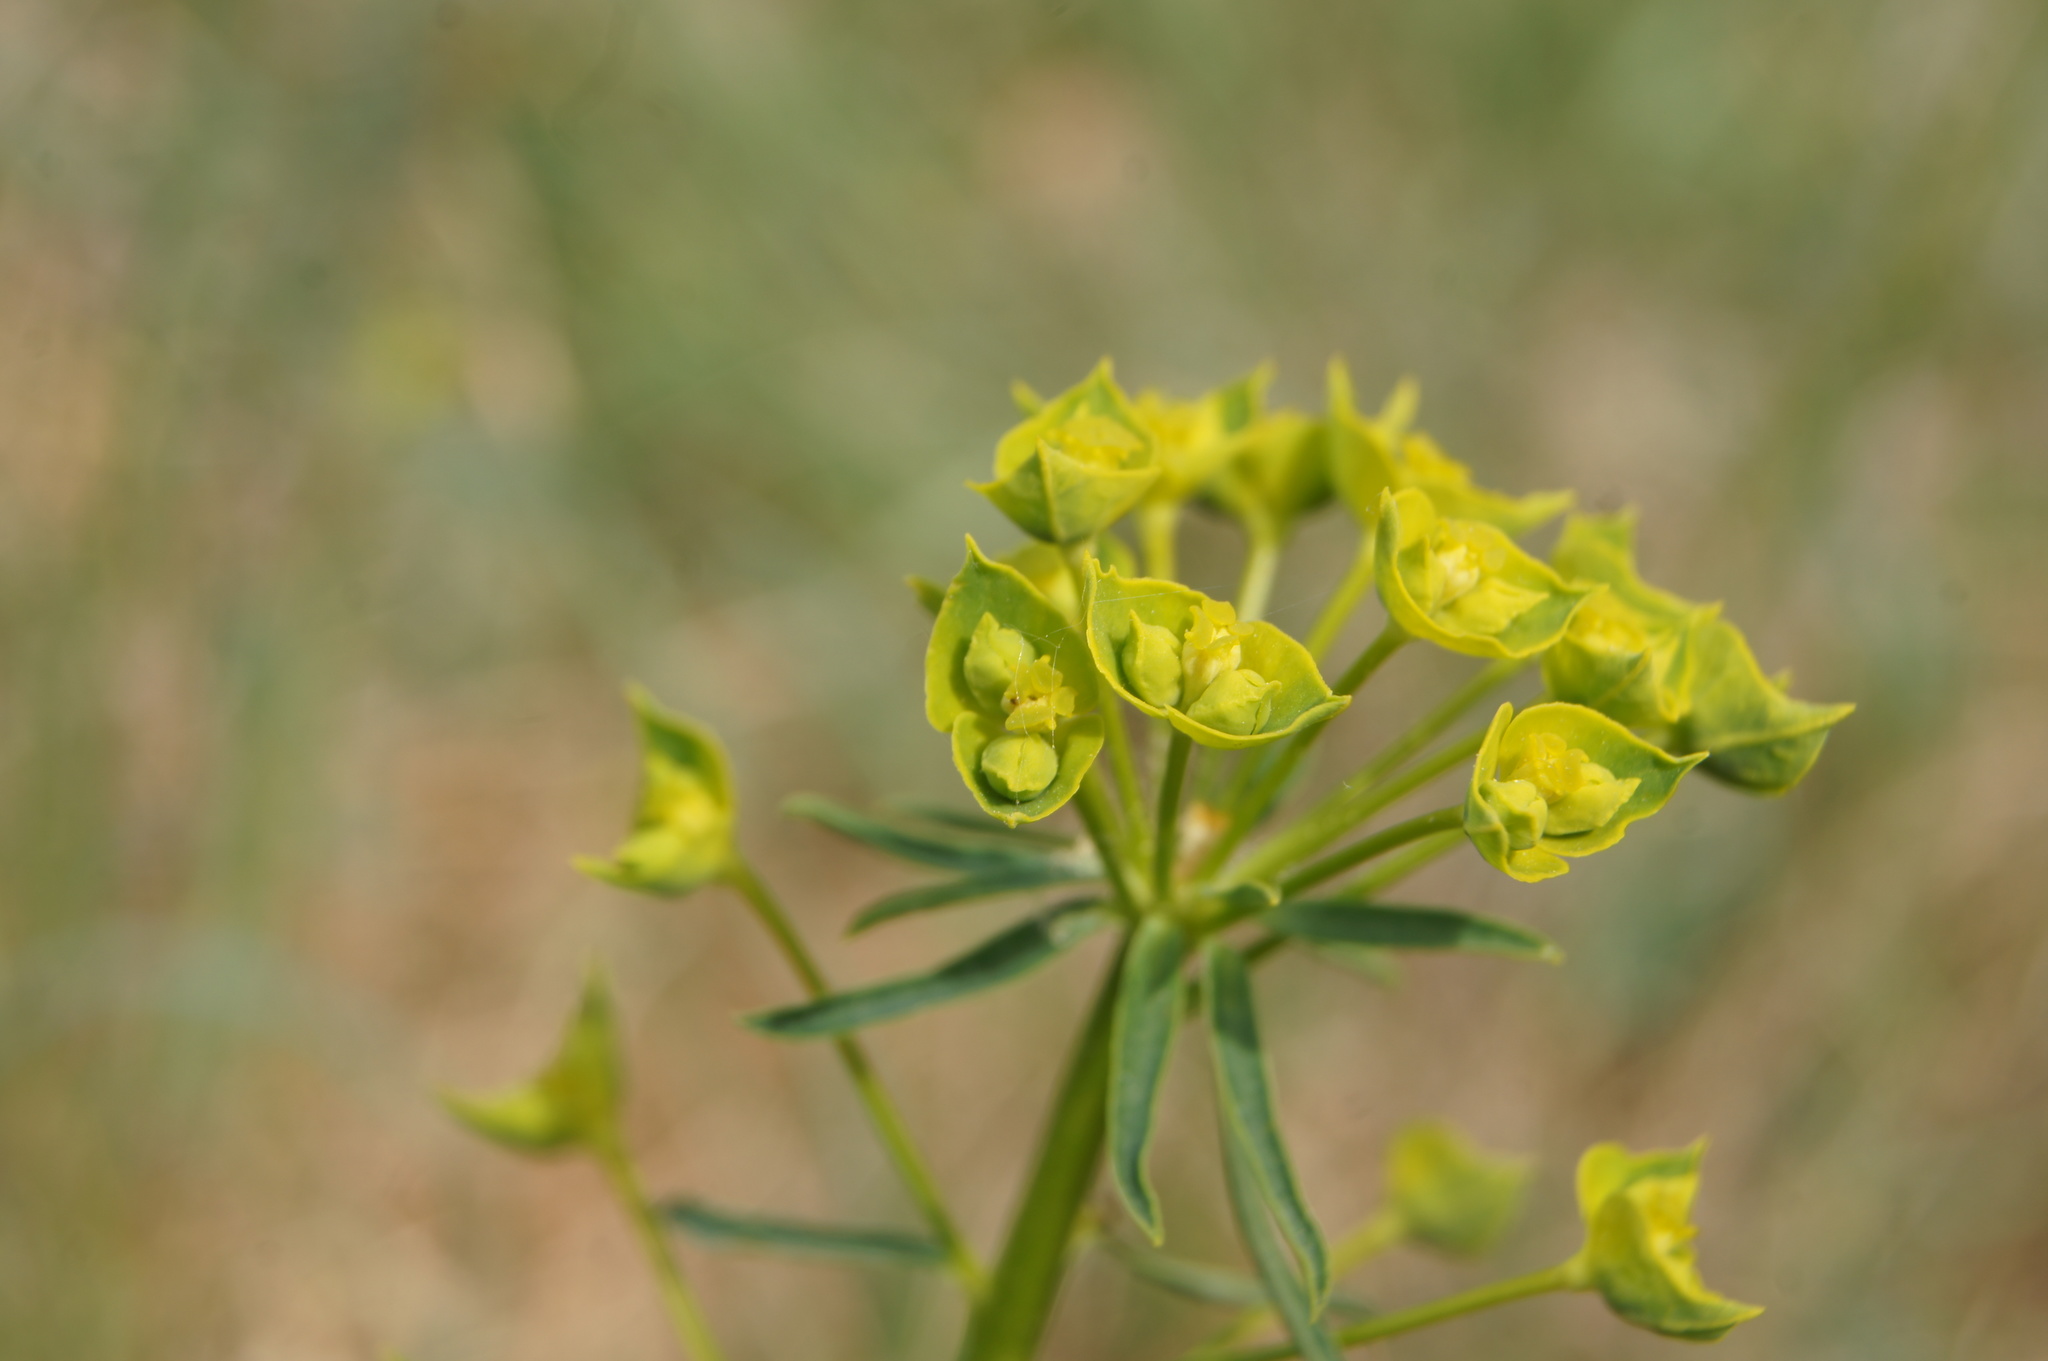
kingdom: Plantae
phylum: Tracheophyta
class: Magnoliopsida
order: Malpighiales
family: Euphorbiaceae
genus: Euphorbia
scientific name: Euphorbia esula
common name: Leafy spurge
